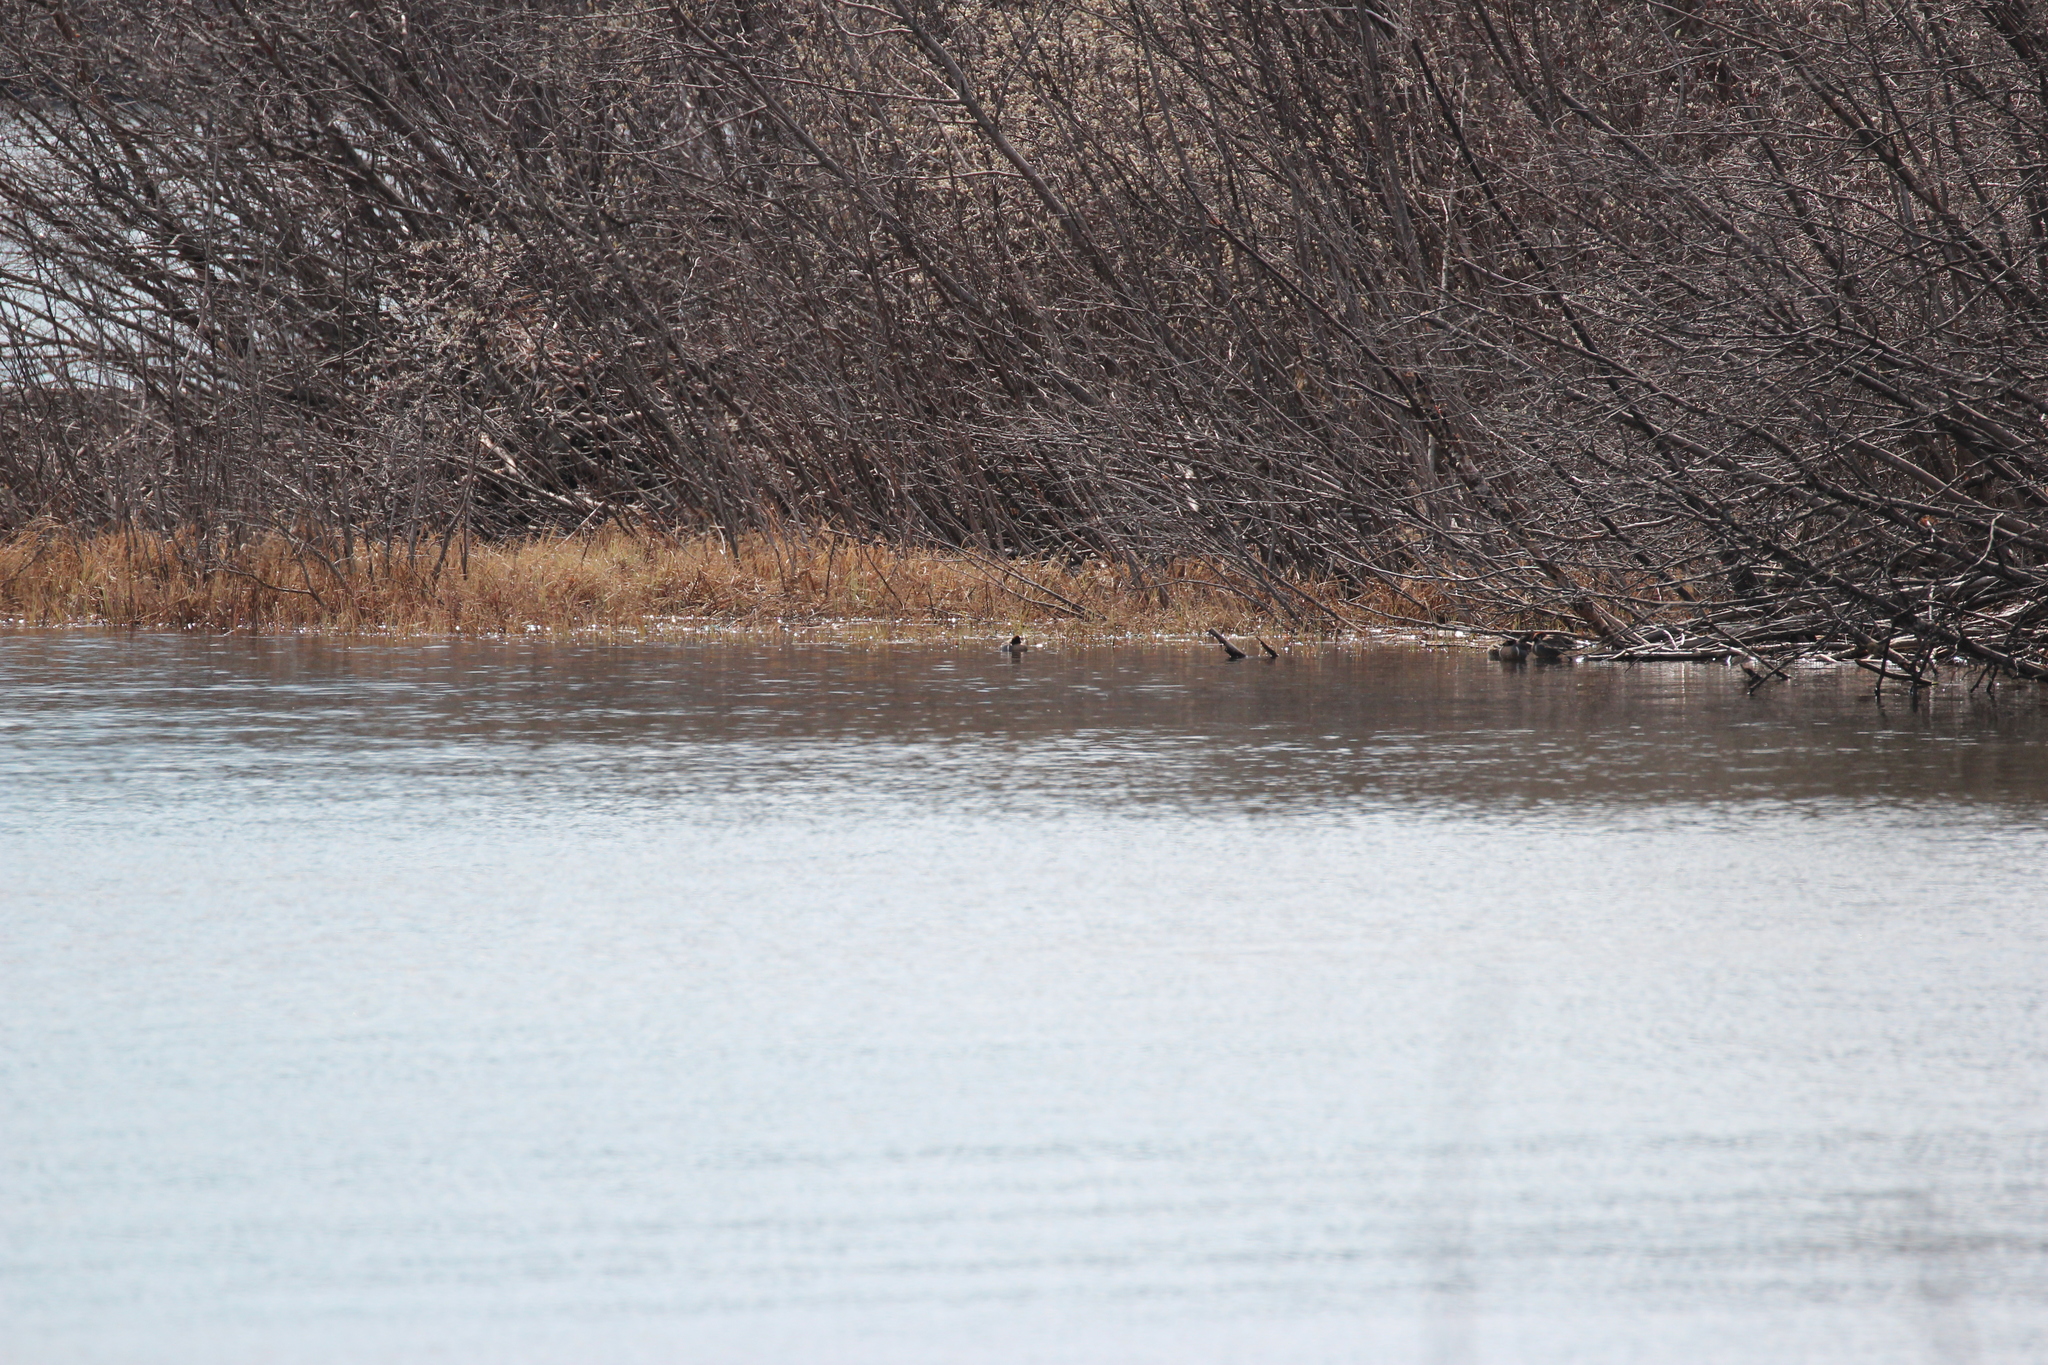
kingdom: Animalia
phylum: Chordata
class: Aves
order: Anseriformes
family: Anatidae
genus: Anas
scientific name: Anas crecca
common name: Eurasian teal
